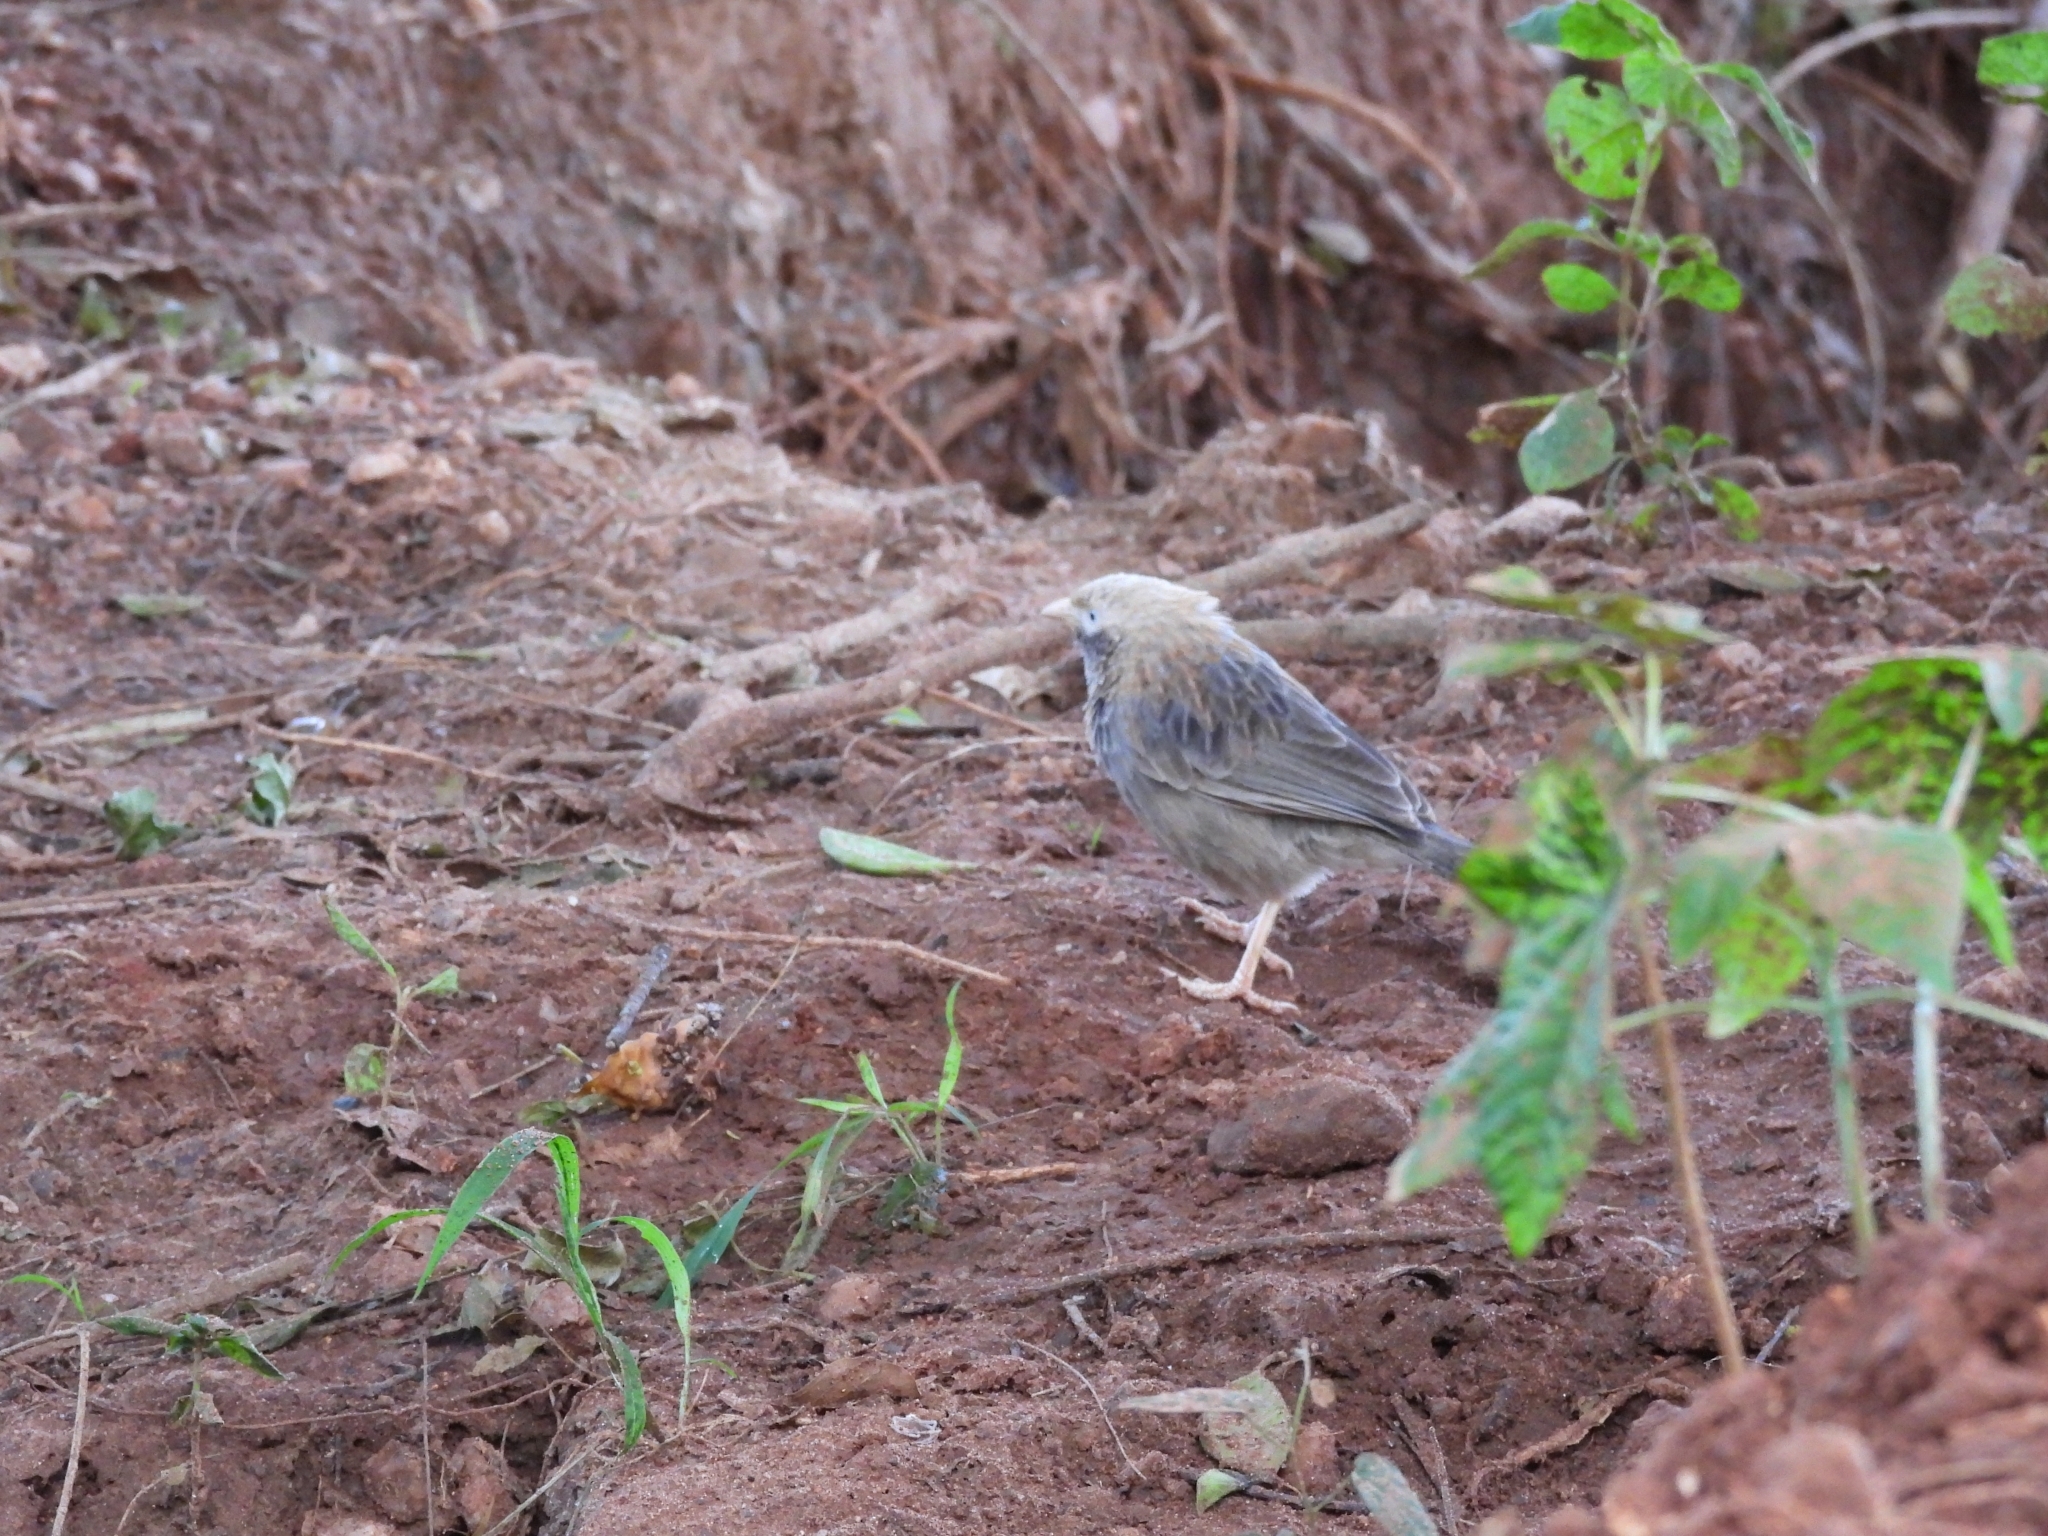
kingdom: Animalia
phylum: Chordata
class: Aves
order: Passeriformes
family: Leiothrichidae
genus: Turdoides
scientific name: Turdoides affinis
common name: Yellow-billed babbler
